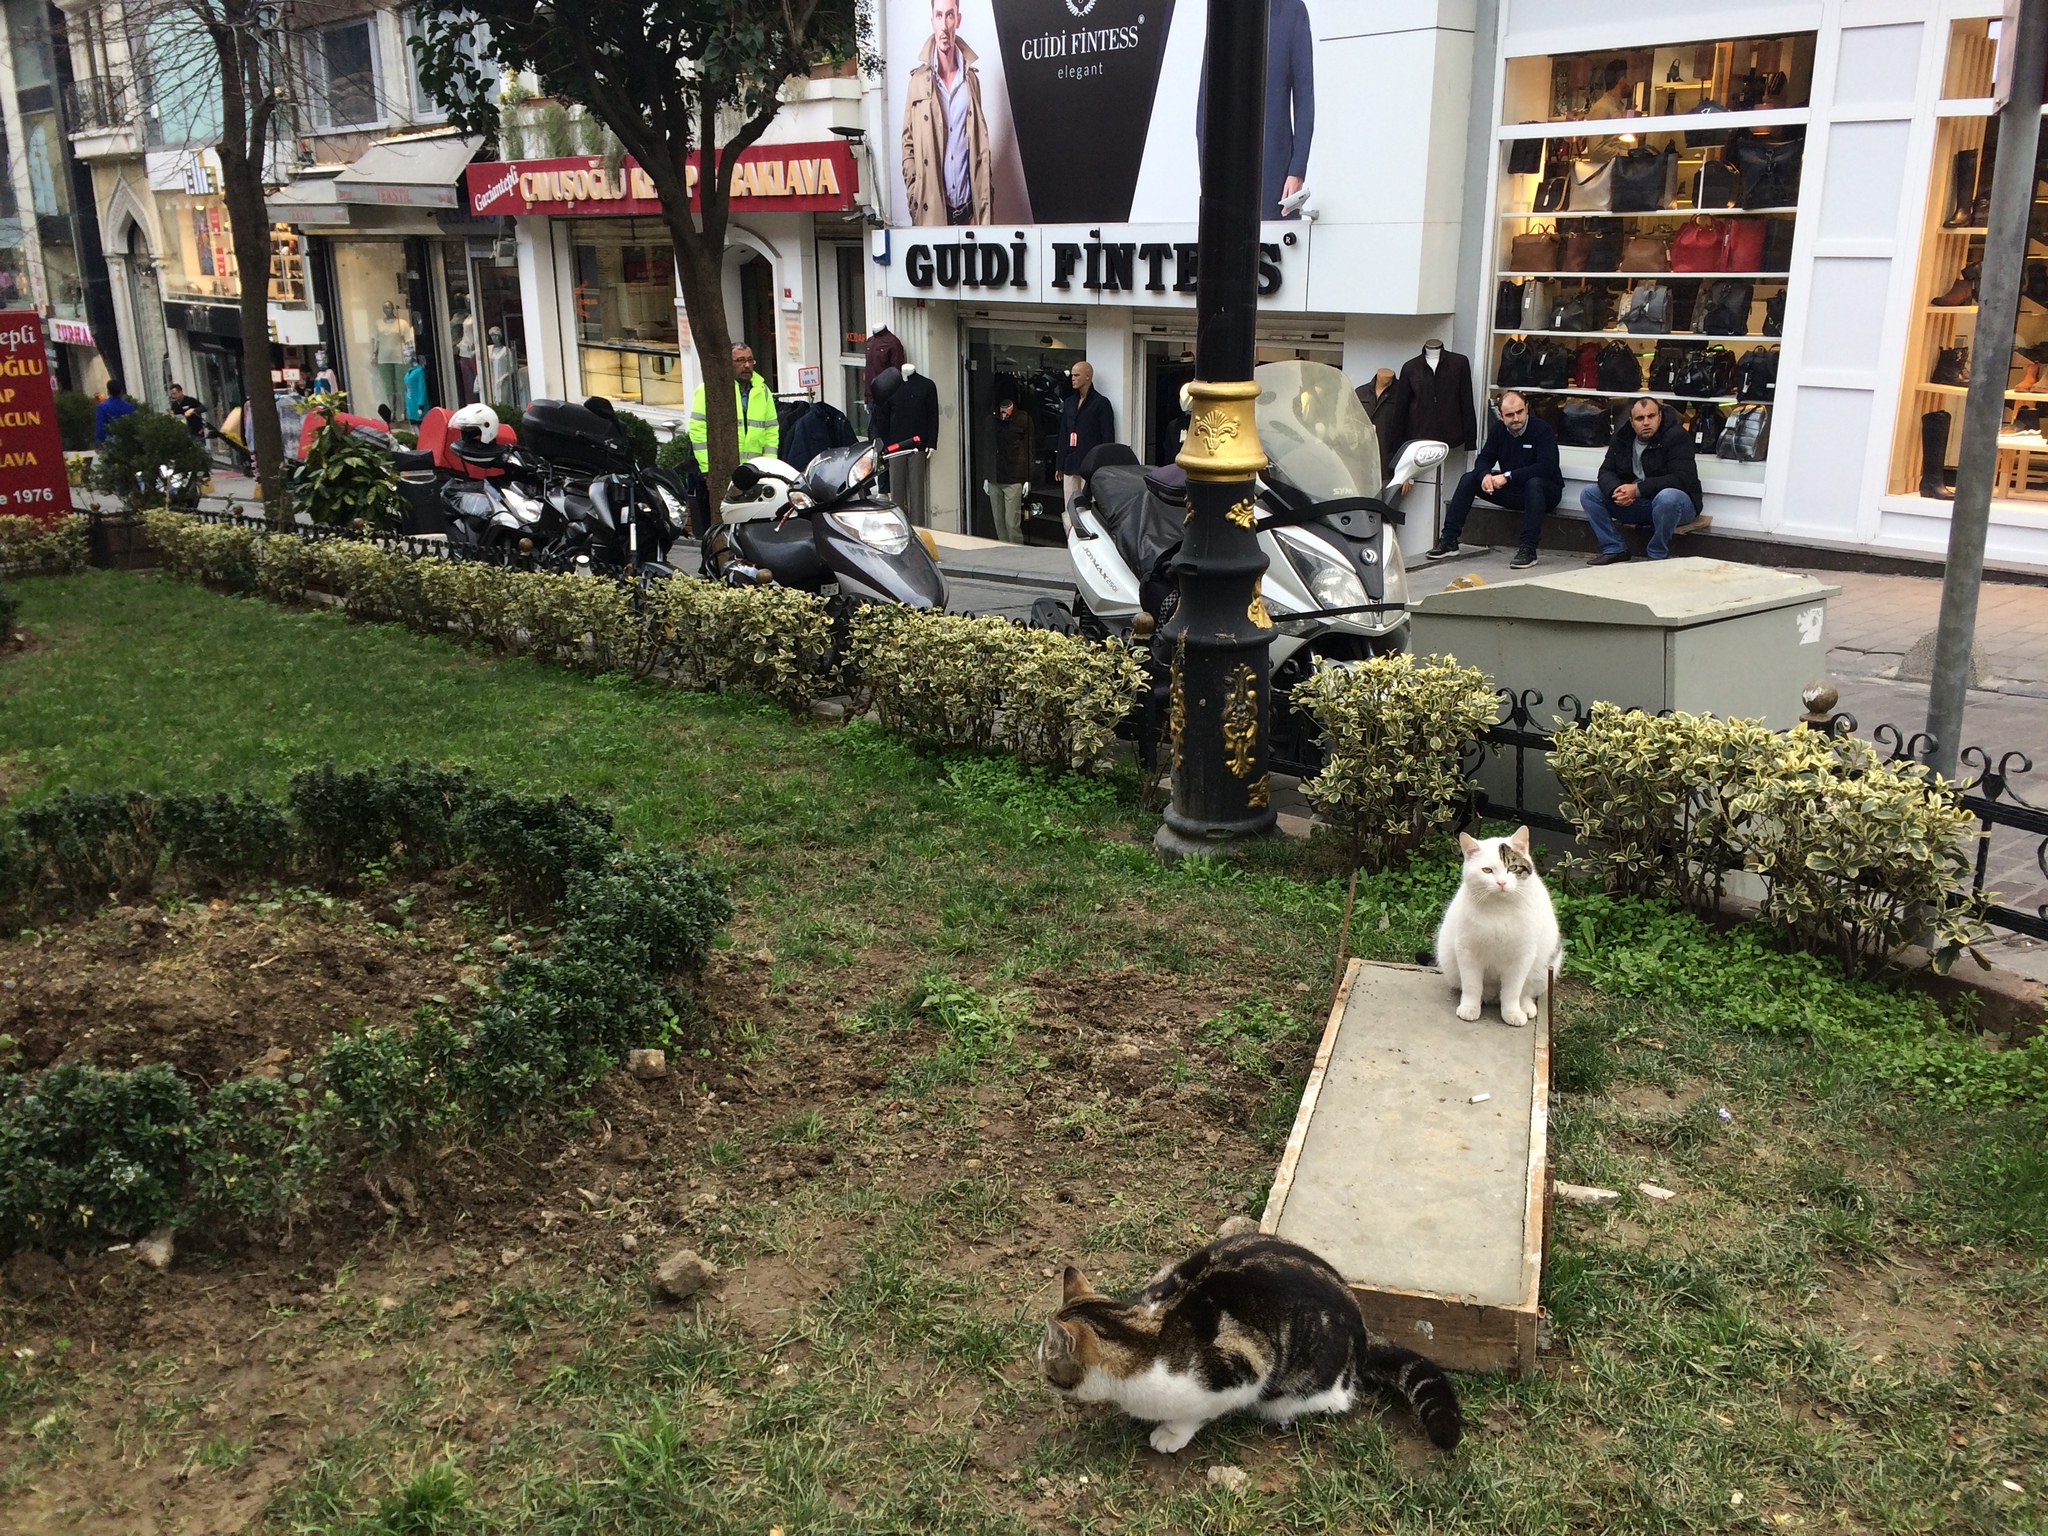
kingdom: Animalia
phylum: Chordata
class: Mammalia
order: Carnivora
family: Felidae
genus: Felis
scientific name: Felis catus
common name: Domestic cat
